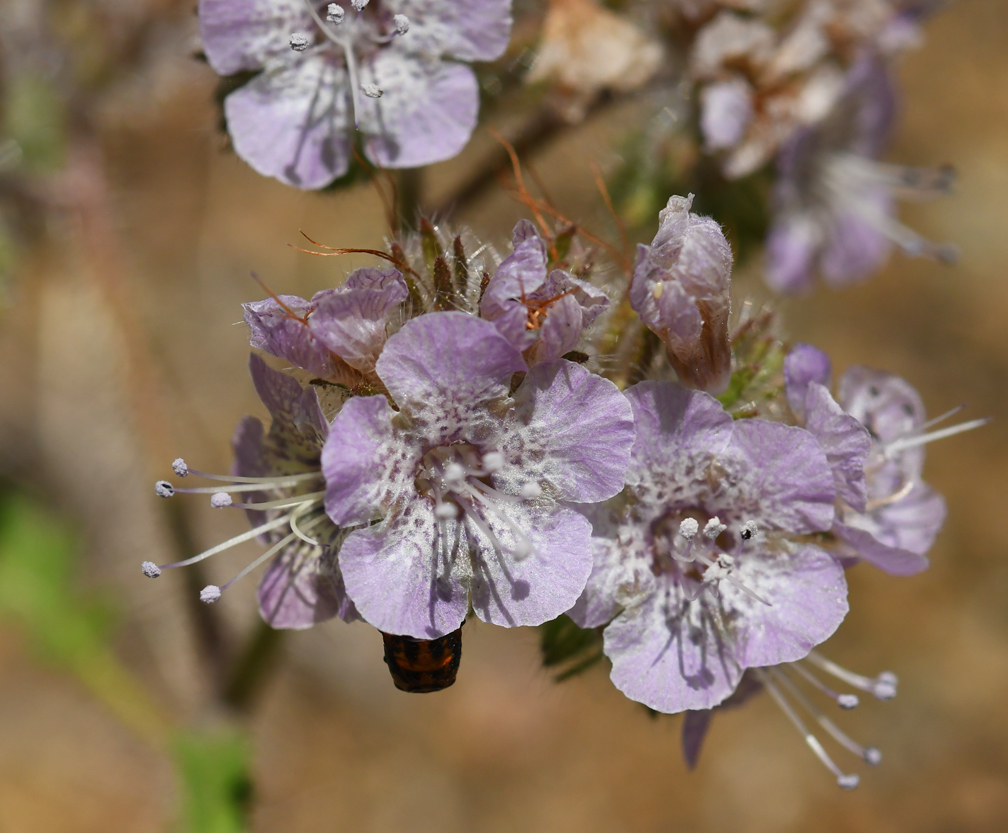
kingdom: Plantae
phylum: Tracheophyta
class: Magnoliopsida
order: Boraginales
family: Hydrophyllaceae
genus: Phacelia
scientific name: Phacelia cicutaria
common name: Caterpillar phacelia
